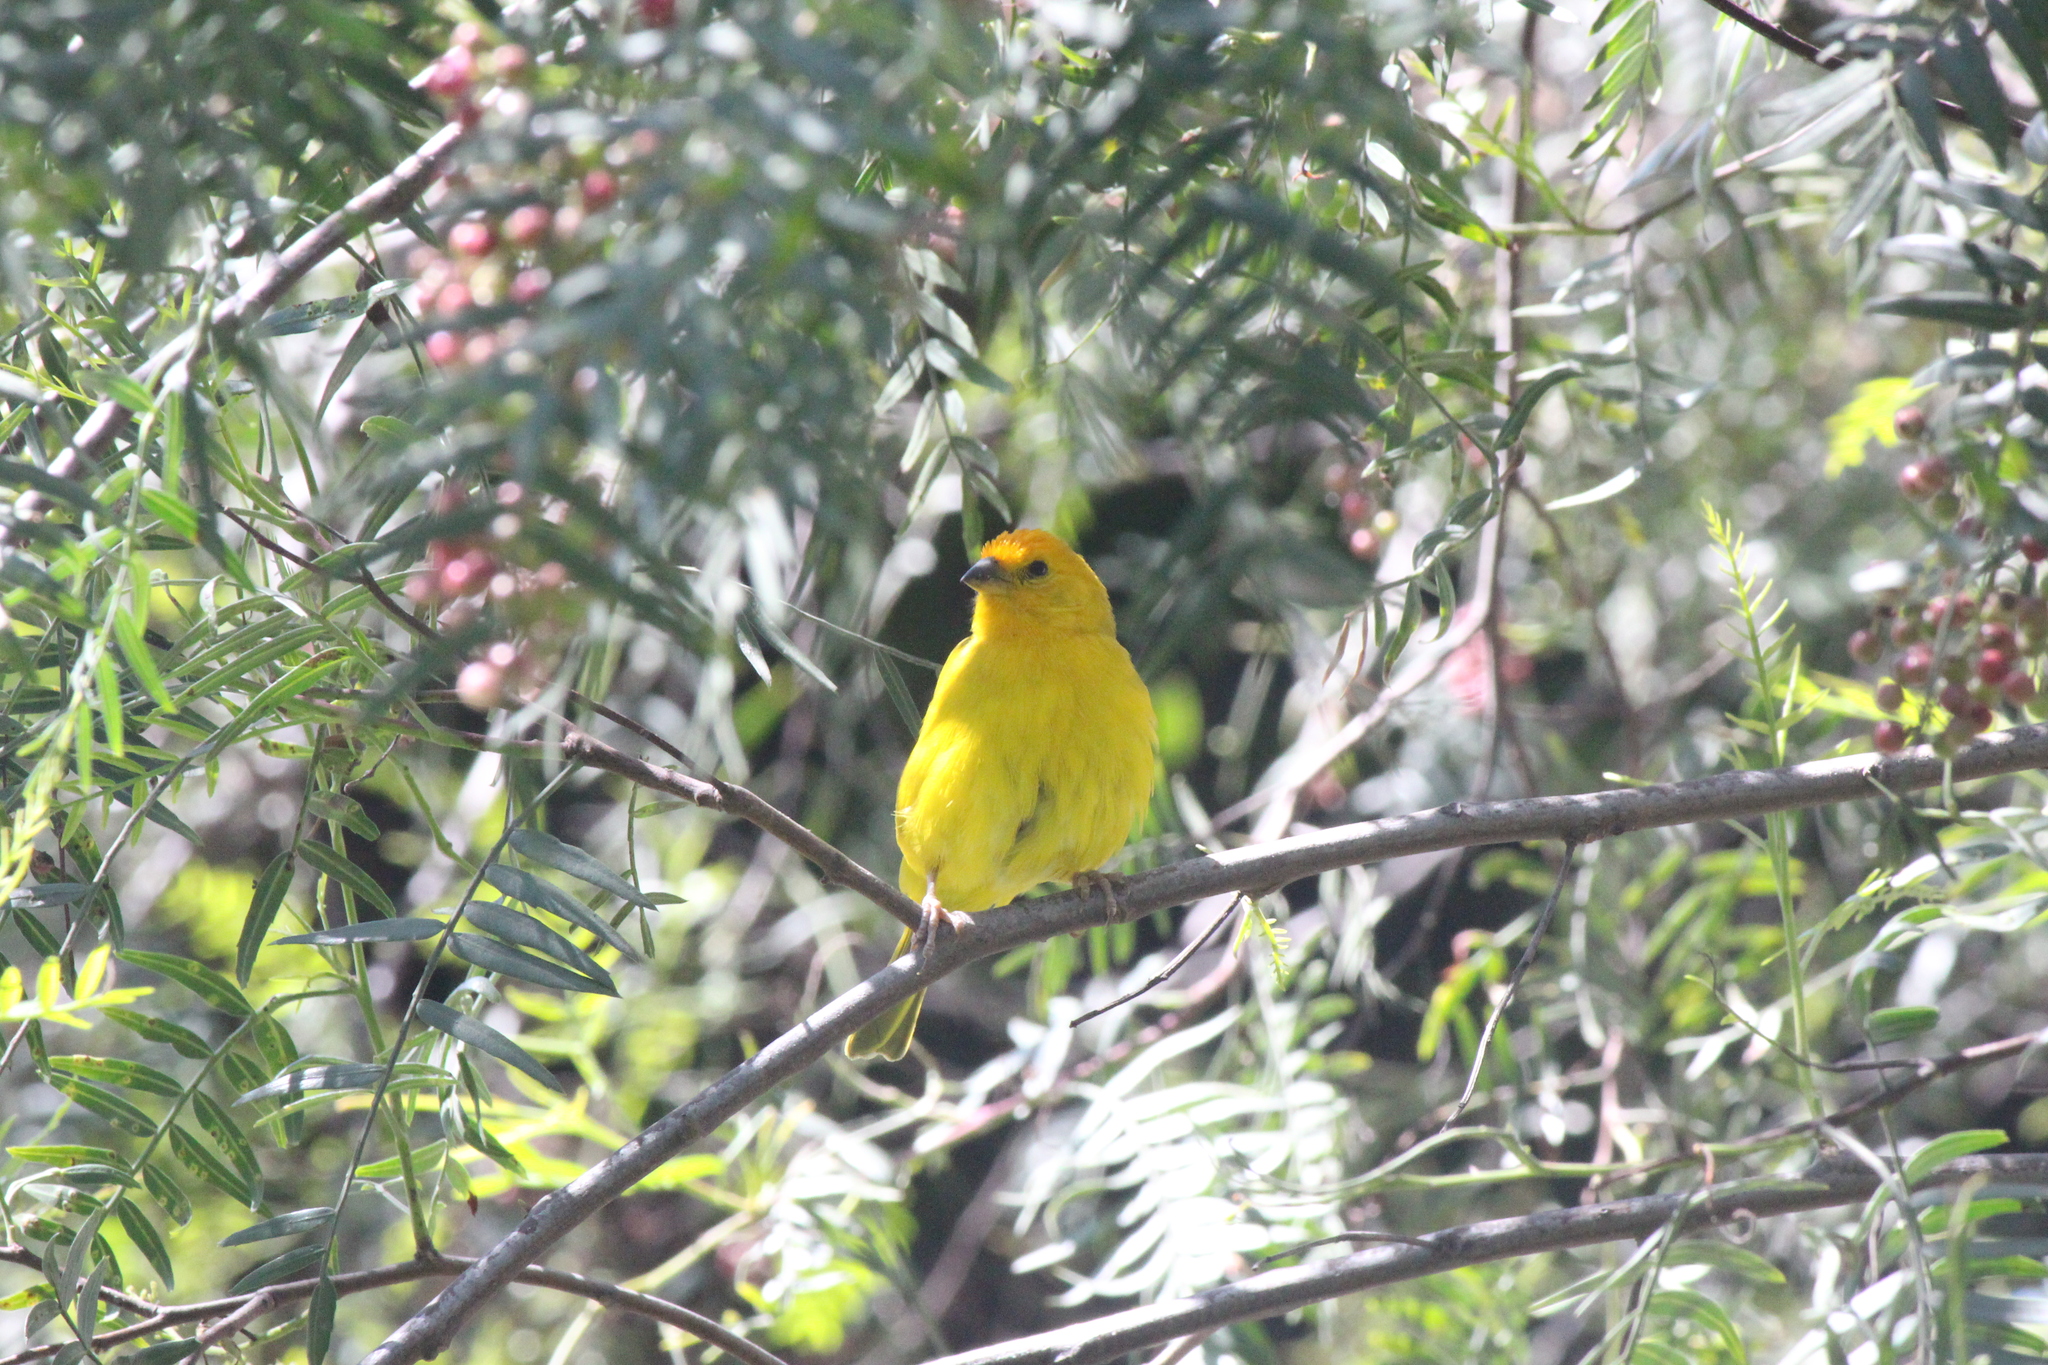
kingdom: Animalia
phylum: Chordata
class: Aves
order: Passeriformes
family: Thraupidae
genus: Sicalis
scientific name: Sicalis flaveola
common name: Saffron finch
